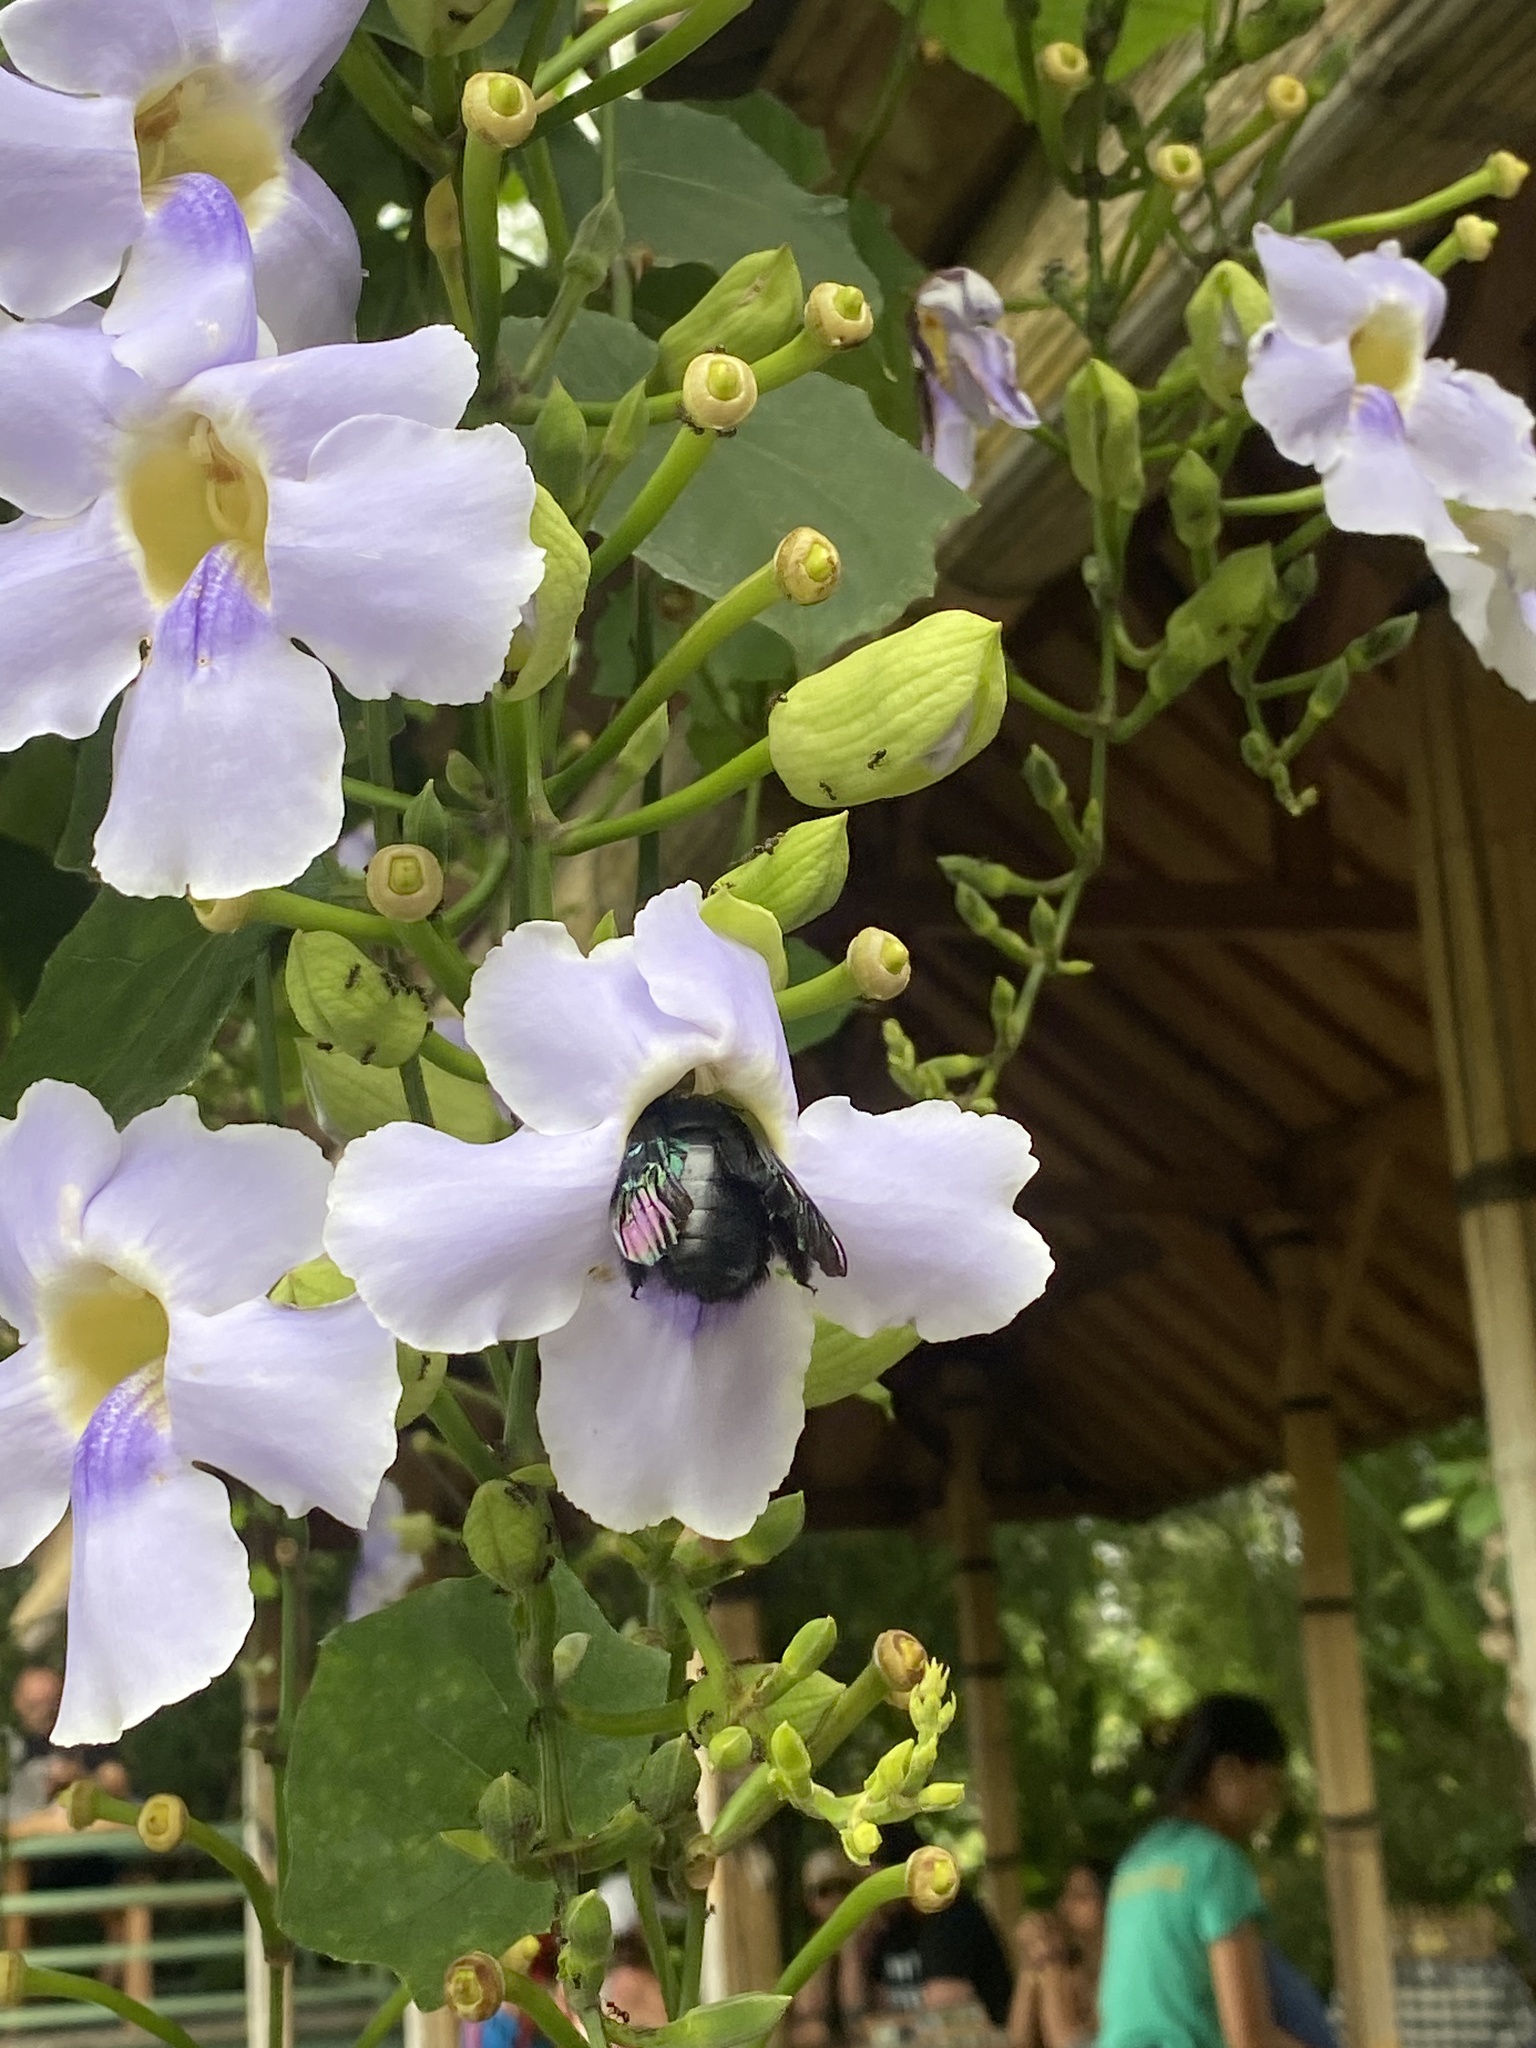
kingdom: Animalia
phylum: Arthropoda
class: Insecta
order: Hymenoptera
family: Apidae
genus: Xylocopa
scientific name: Xylocopa latipes
